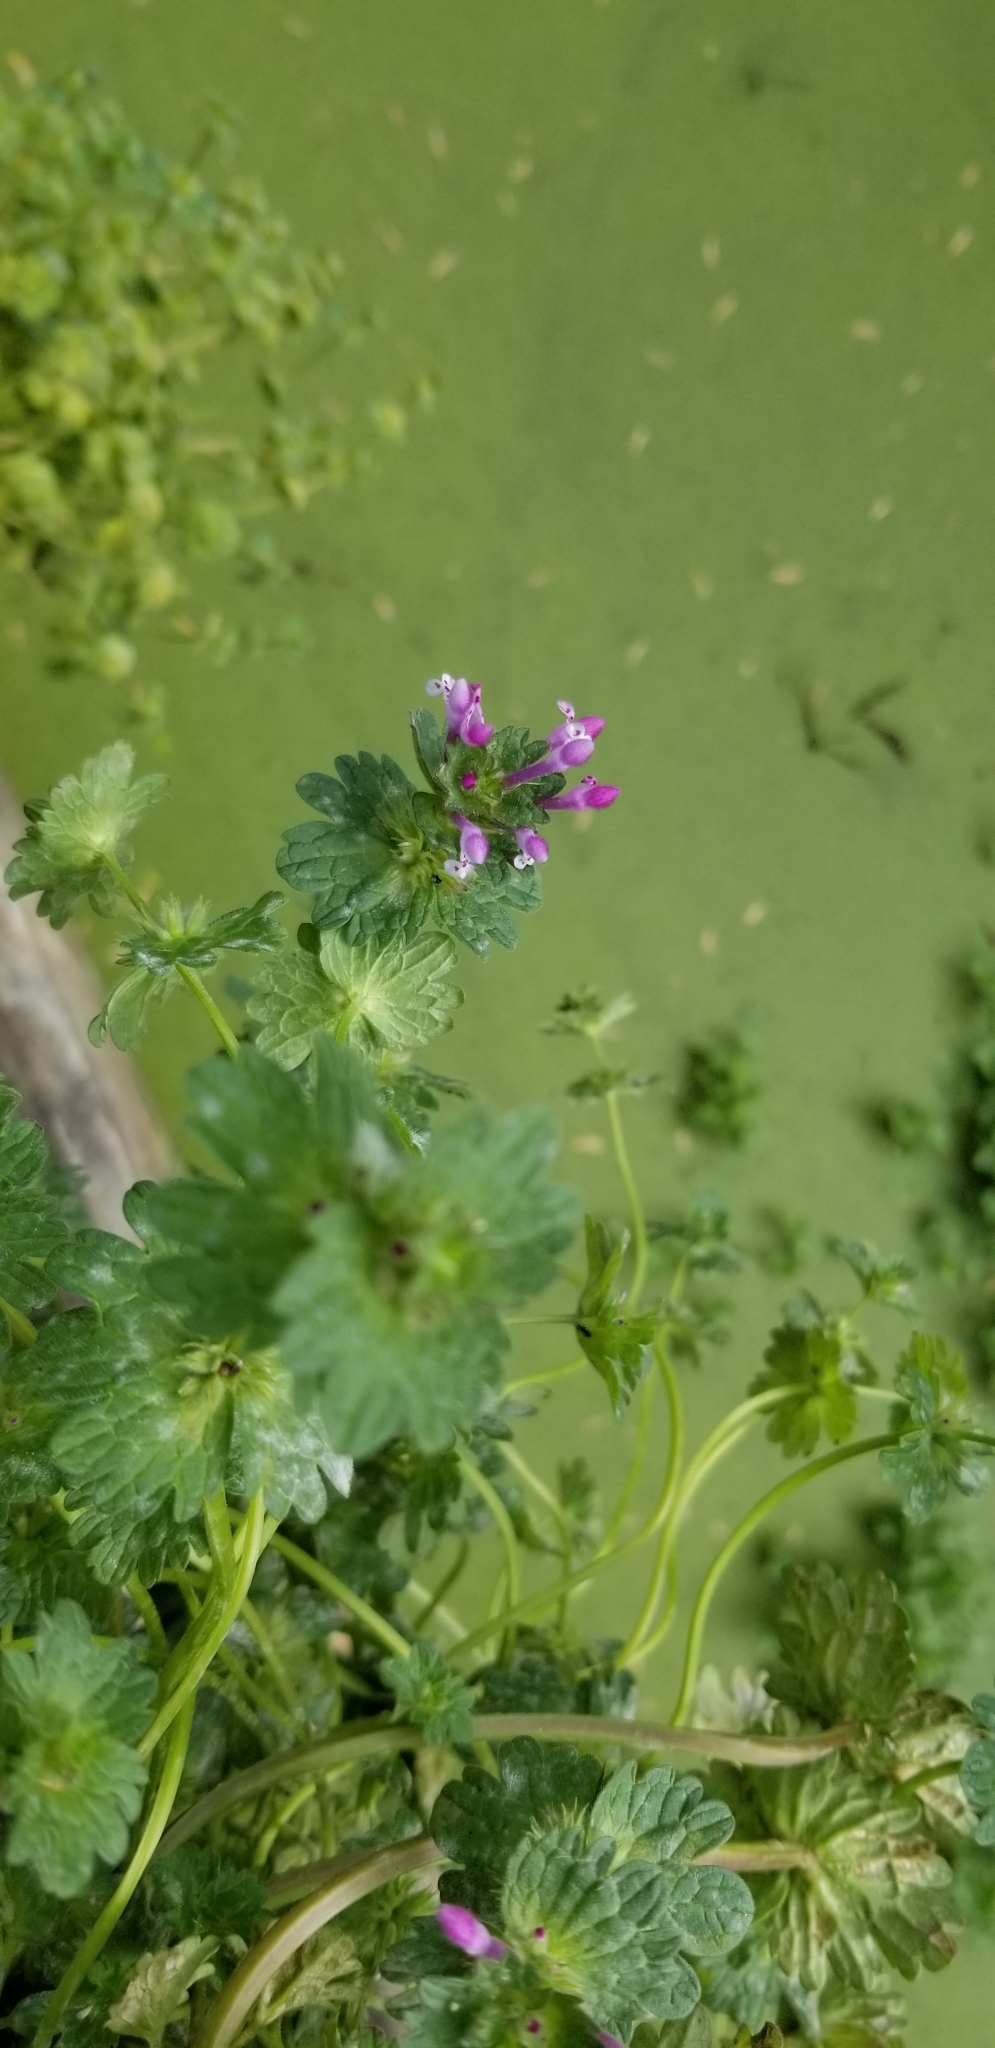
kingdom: Plantae
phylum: Tracheophyta
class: Magnoliopsida
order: Lamiales
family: Lamiaceae
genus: Lamium
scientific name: Lamium amplexicaule
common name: Henbit dead-nettle
